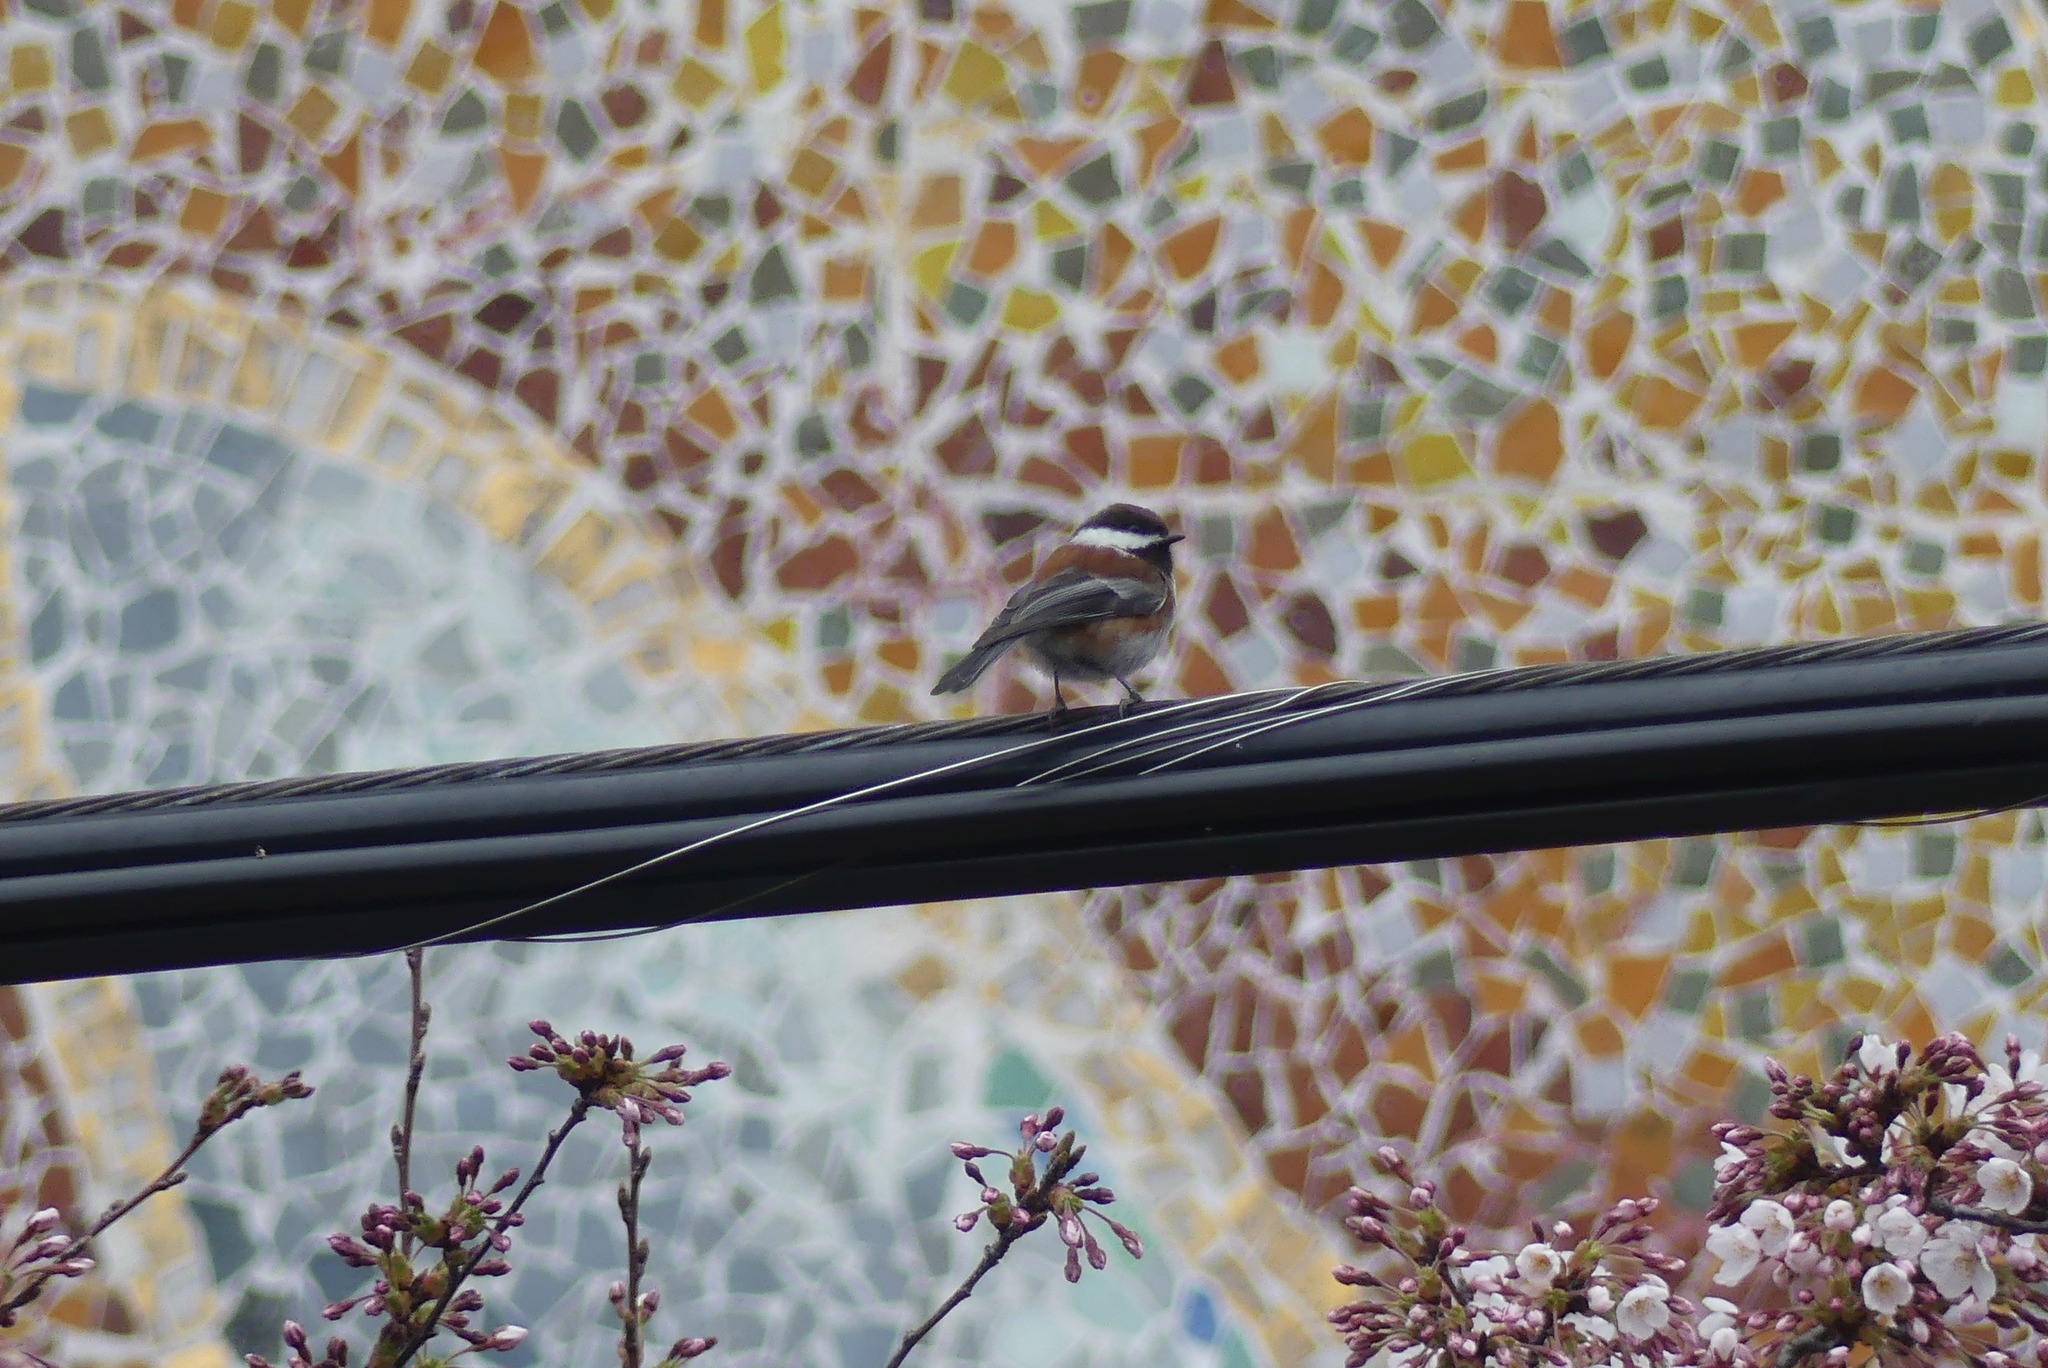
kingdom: Animalia
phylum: Chordata
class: Aves
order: Passeriformes
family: Paridae
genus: Poecile
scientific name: Poecile rufescens
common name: Chestnut-backed chickadee
